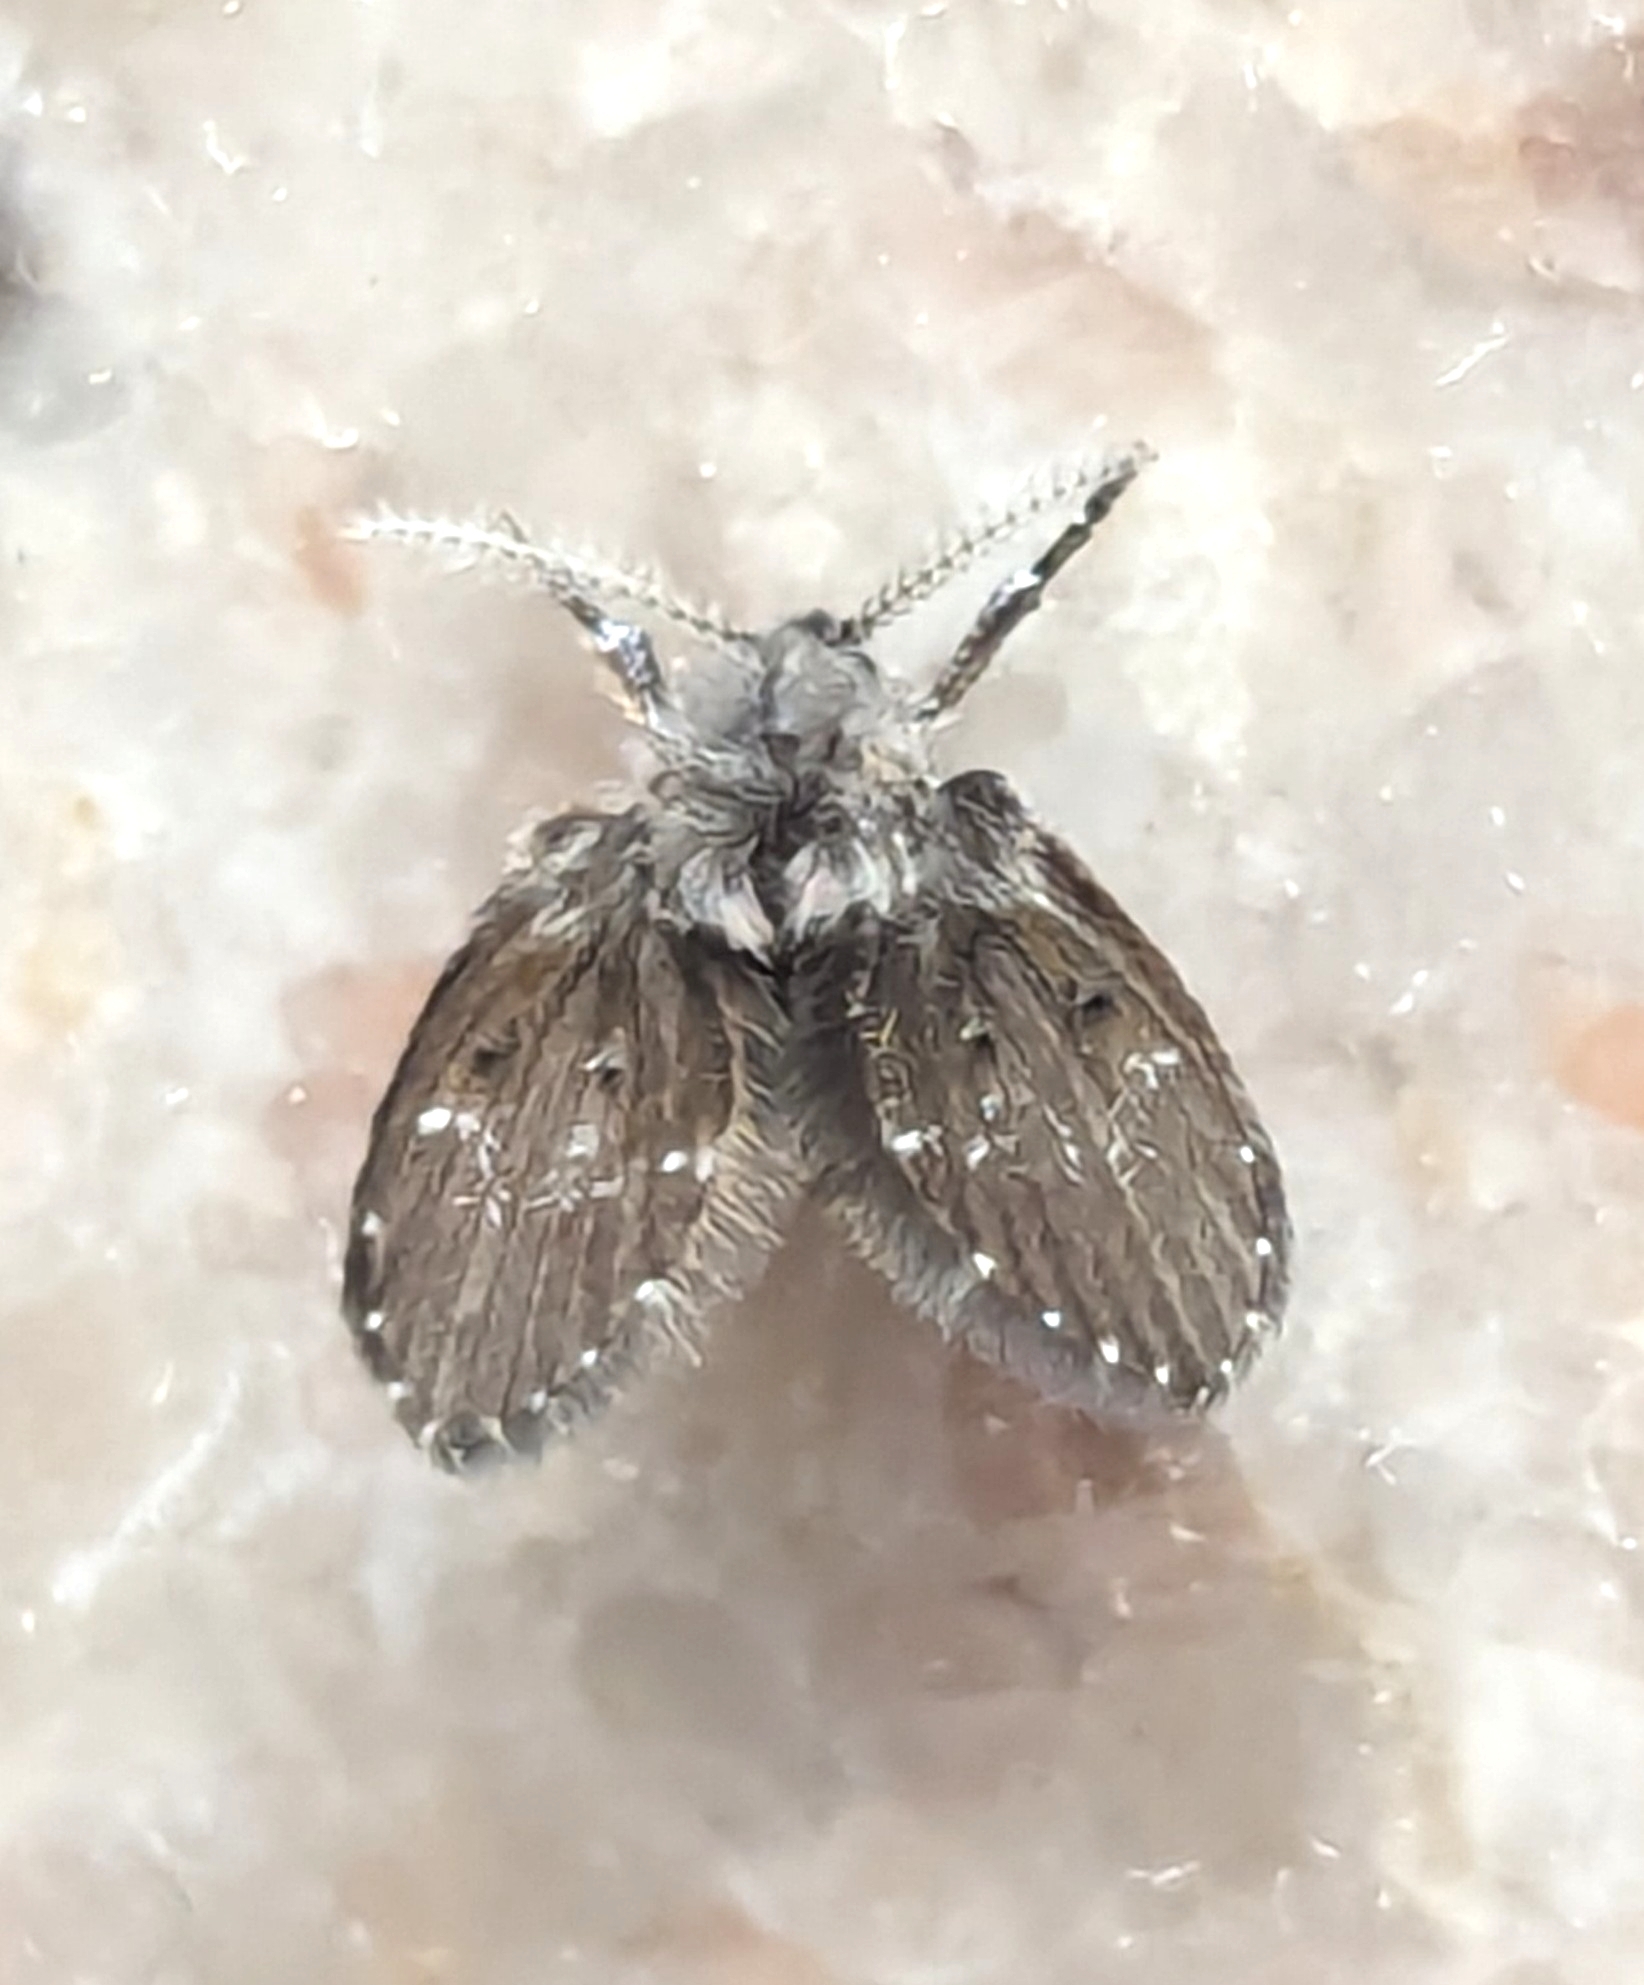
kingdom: Animalia
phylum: Arthropoda
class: Insecta
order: Diptera
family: Psychodidae
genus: Clogmia
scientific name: Clogmia albipunctatus
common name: White-spotted moth fly
